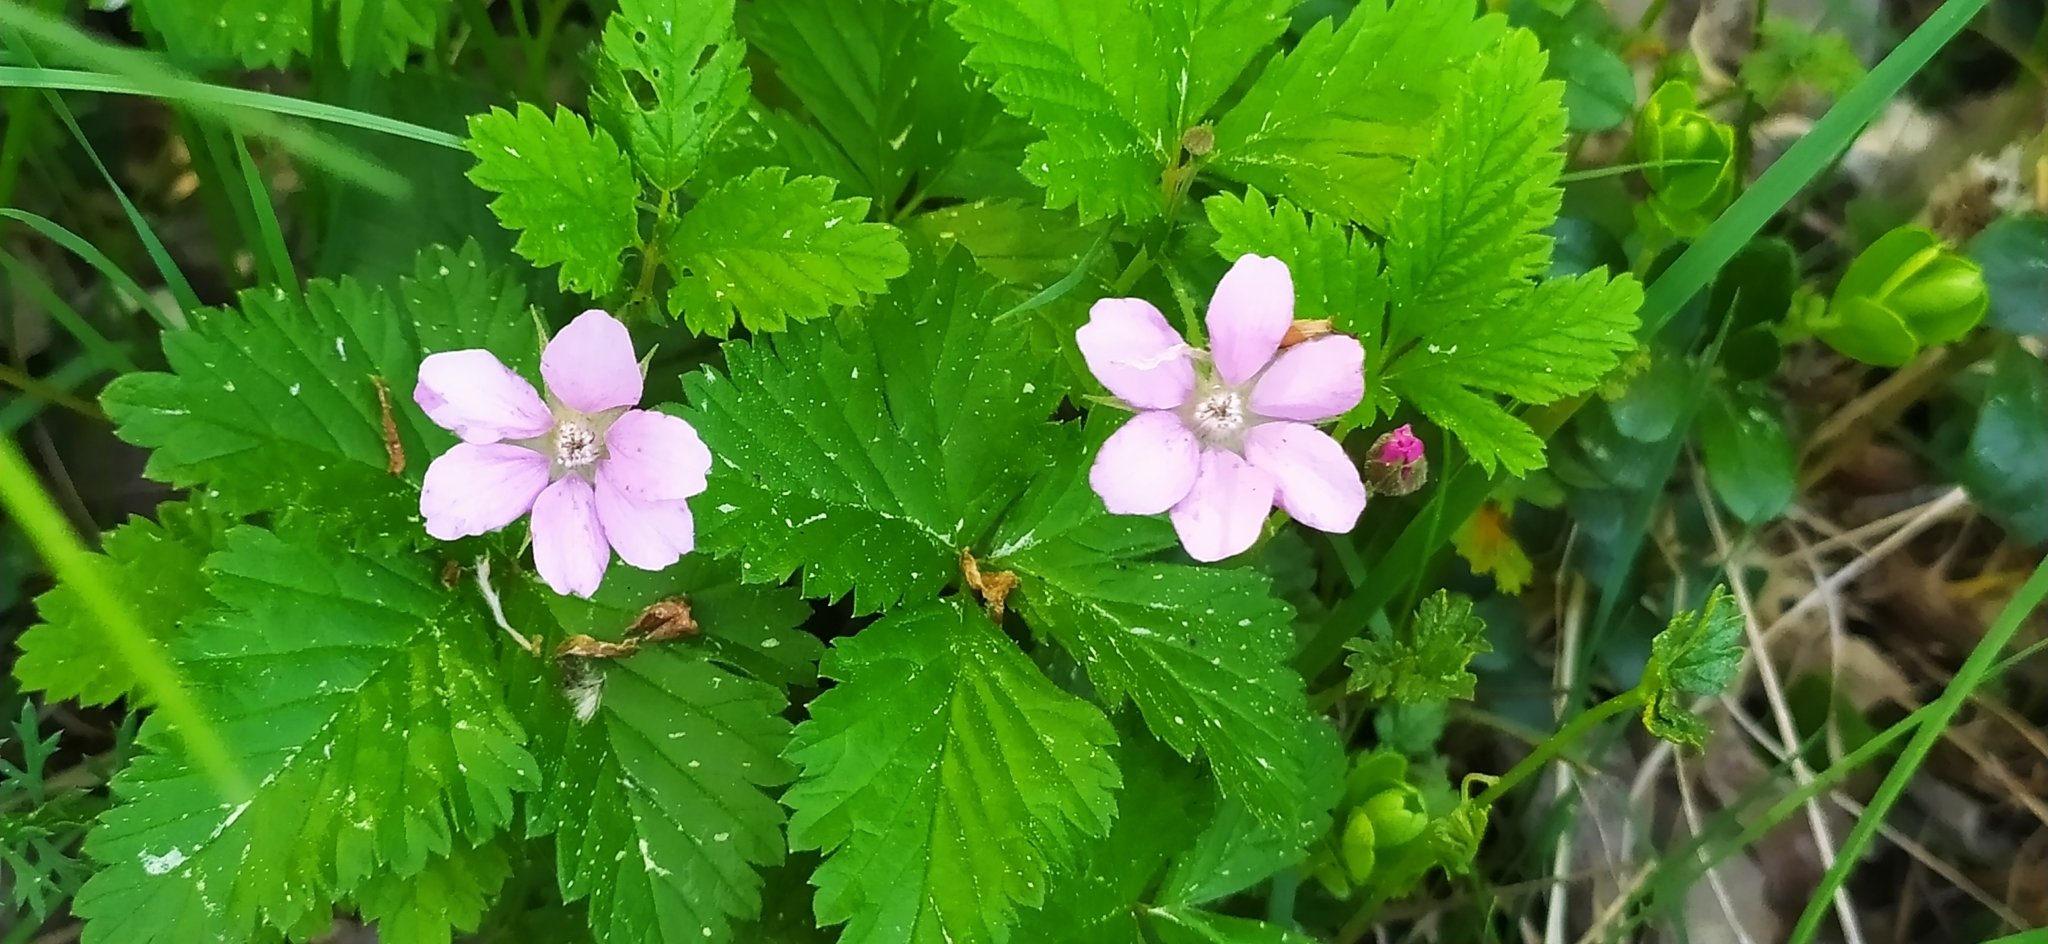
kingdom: Plantae
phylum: Tracheophyta
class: Magnoliopsida
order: Rosales
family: Rosaceae
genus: Rubus
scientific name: Rubus arcticus
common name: Arctic bramble
